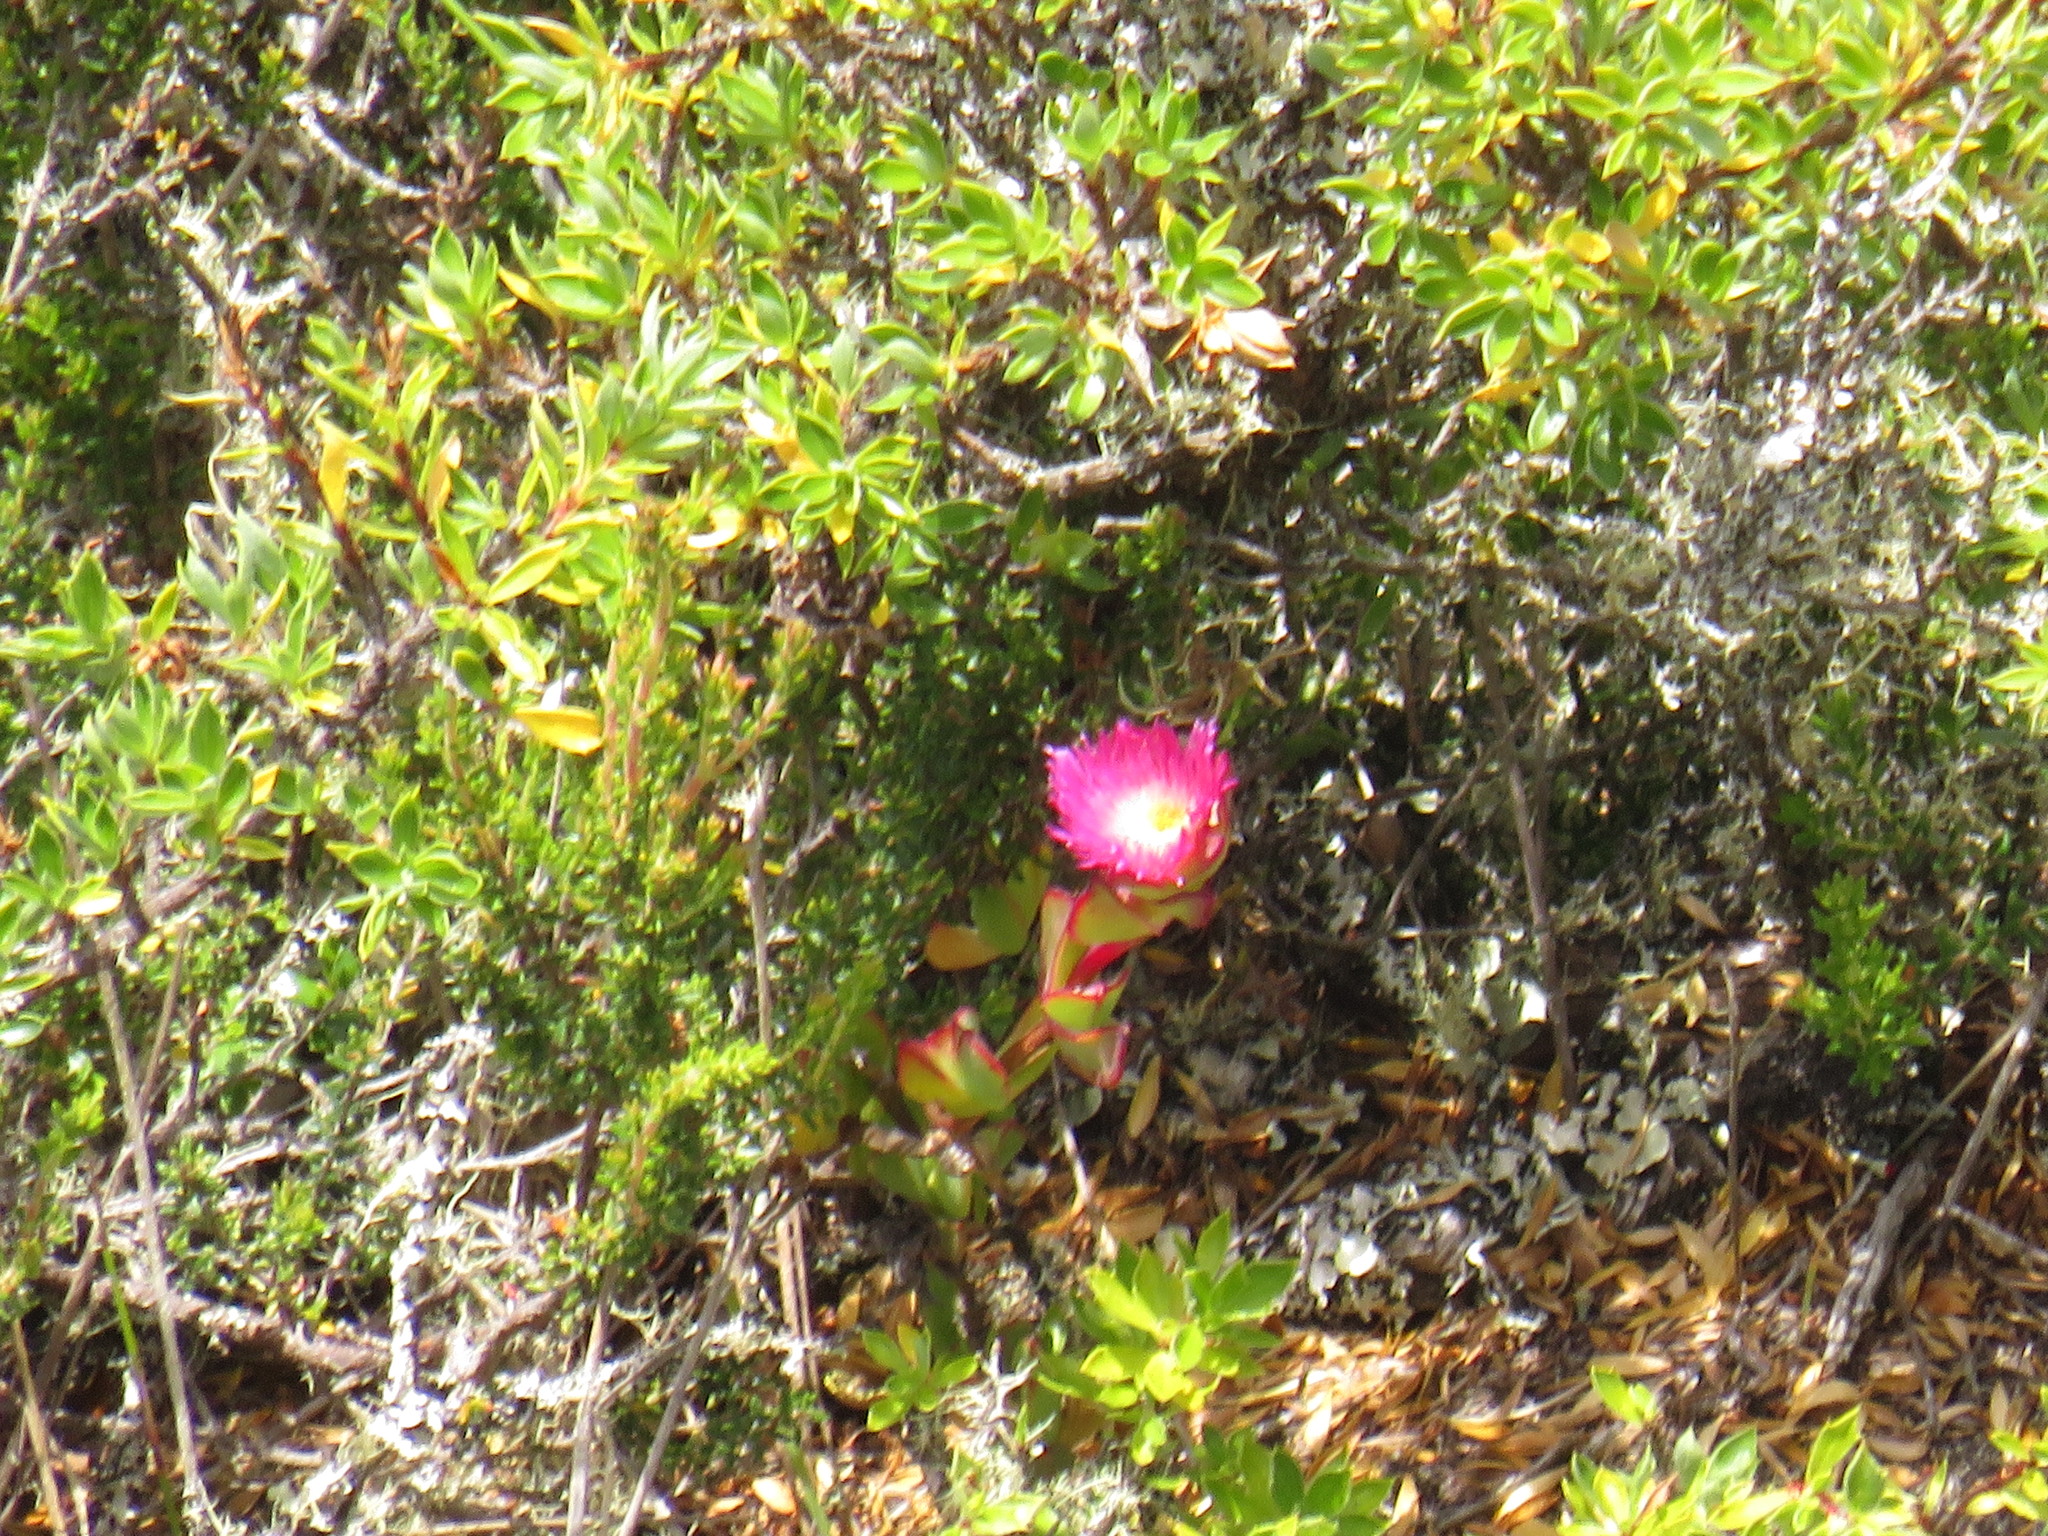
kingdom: Plantae
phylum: Tracheophyta
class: Magnoliopsida
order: Caryophyllales
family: Aizoaceae
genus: Erepsia
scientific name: Erepsia forficata
